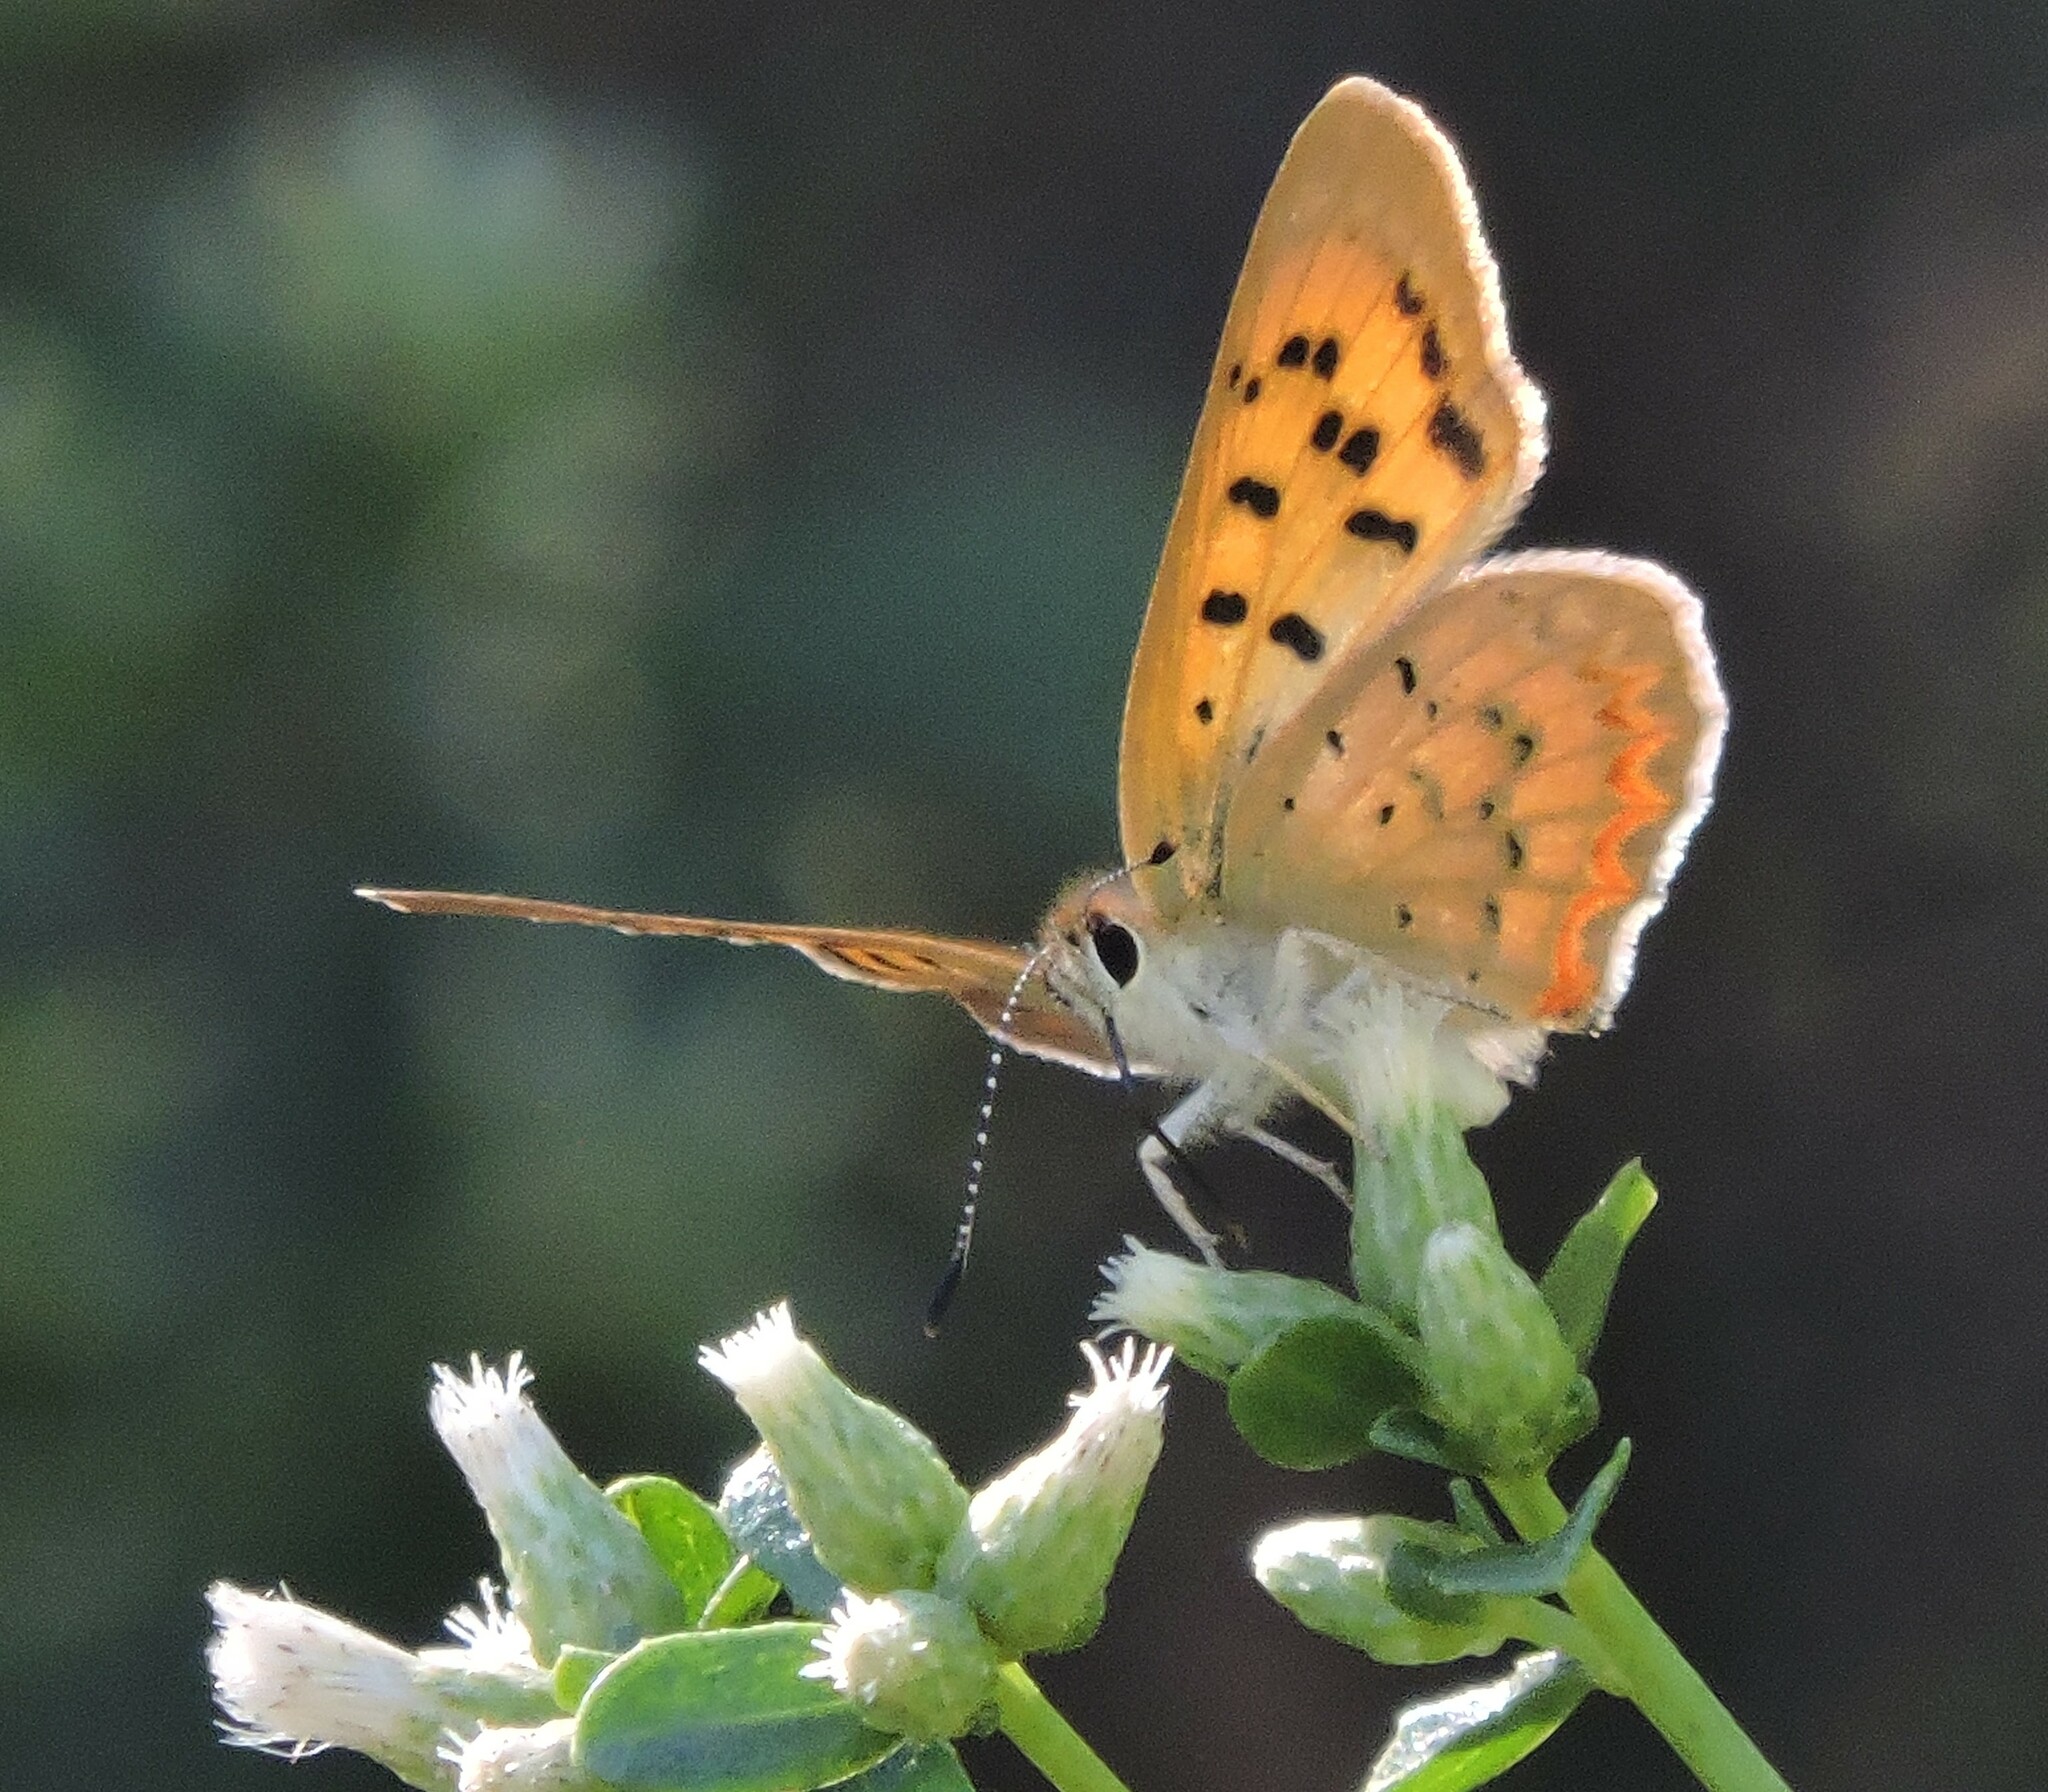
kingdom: Animalia
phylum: Arthropoda
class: Insecta
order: Lepidoptera
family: Lycaenidae
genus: Tharsalea
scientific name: Tharsalea helloides
